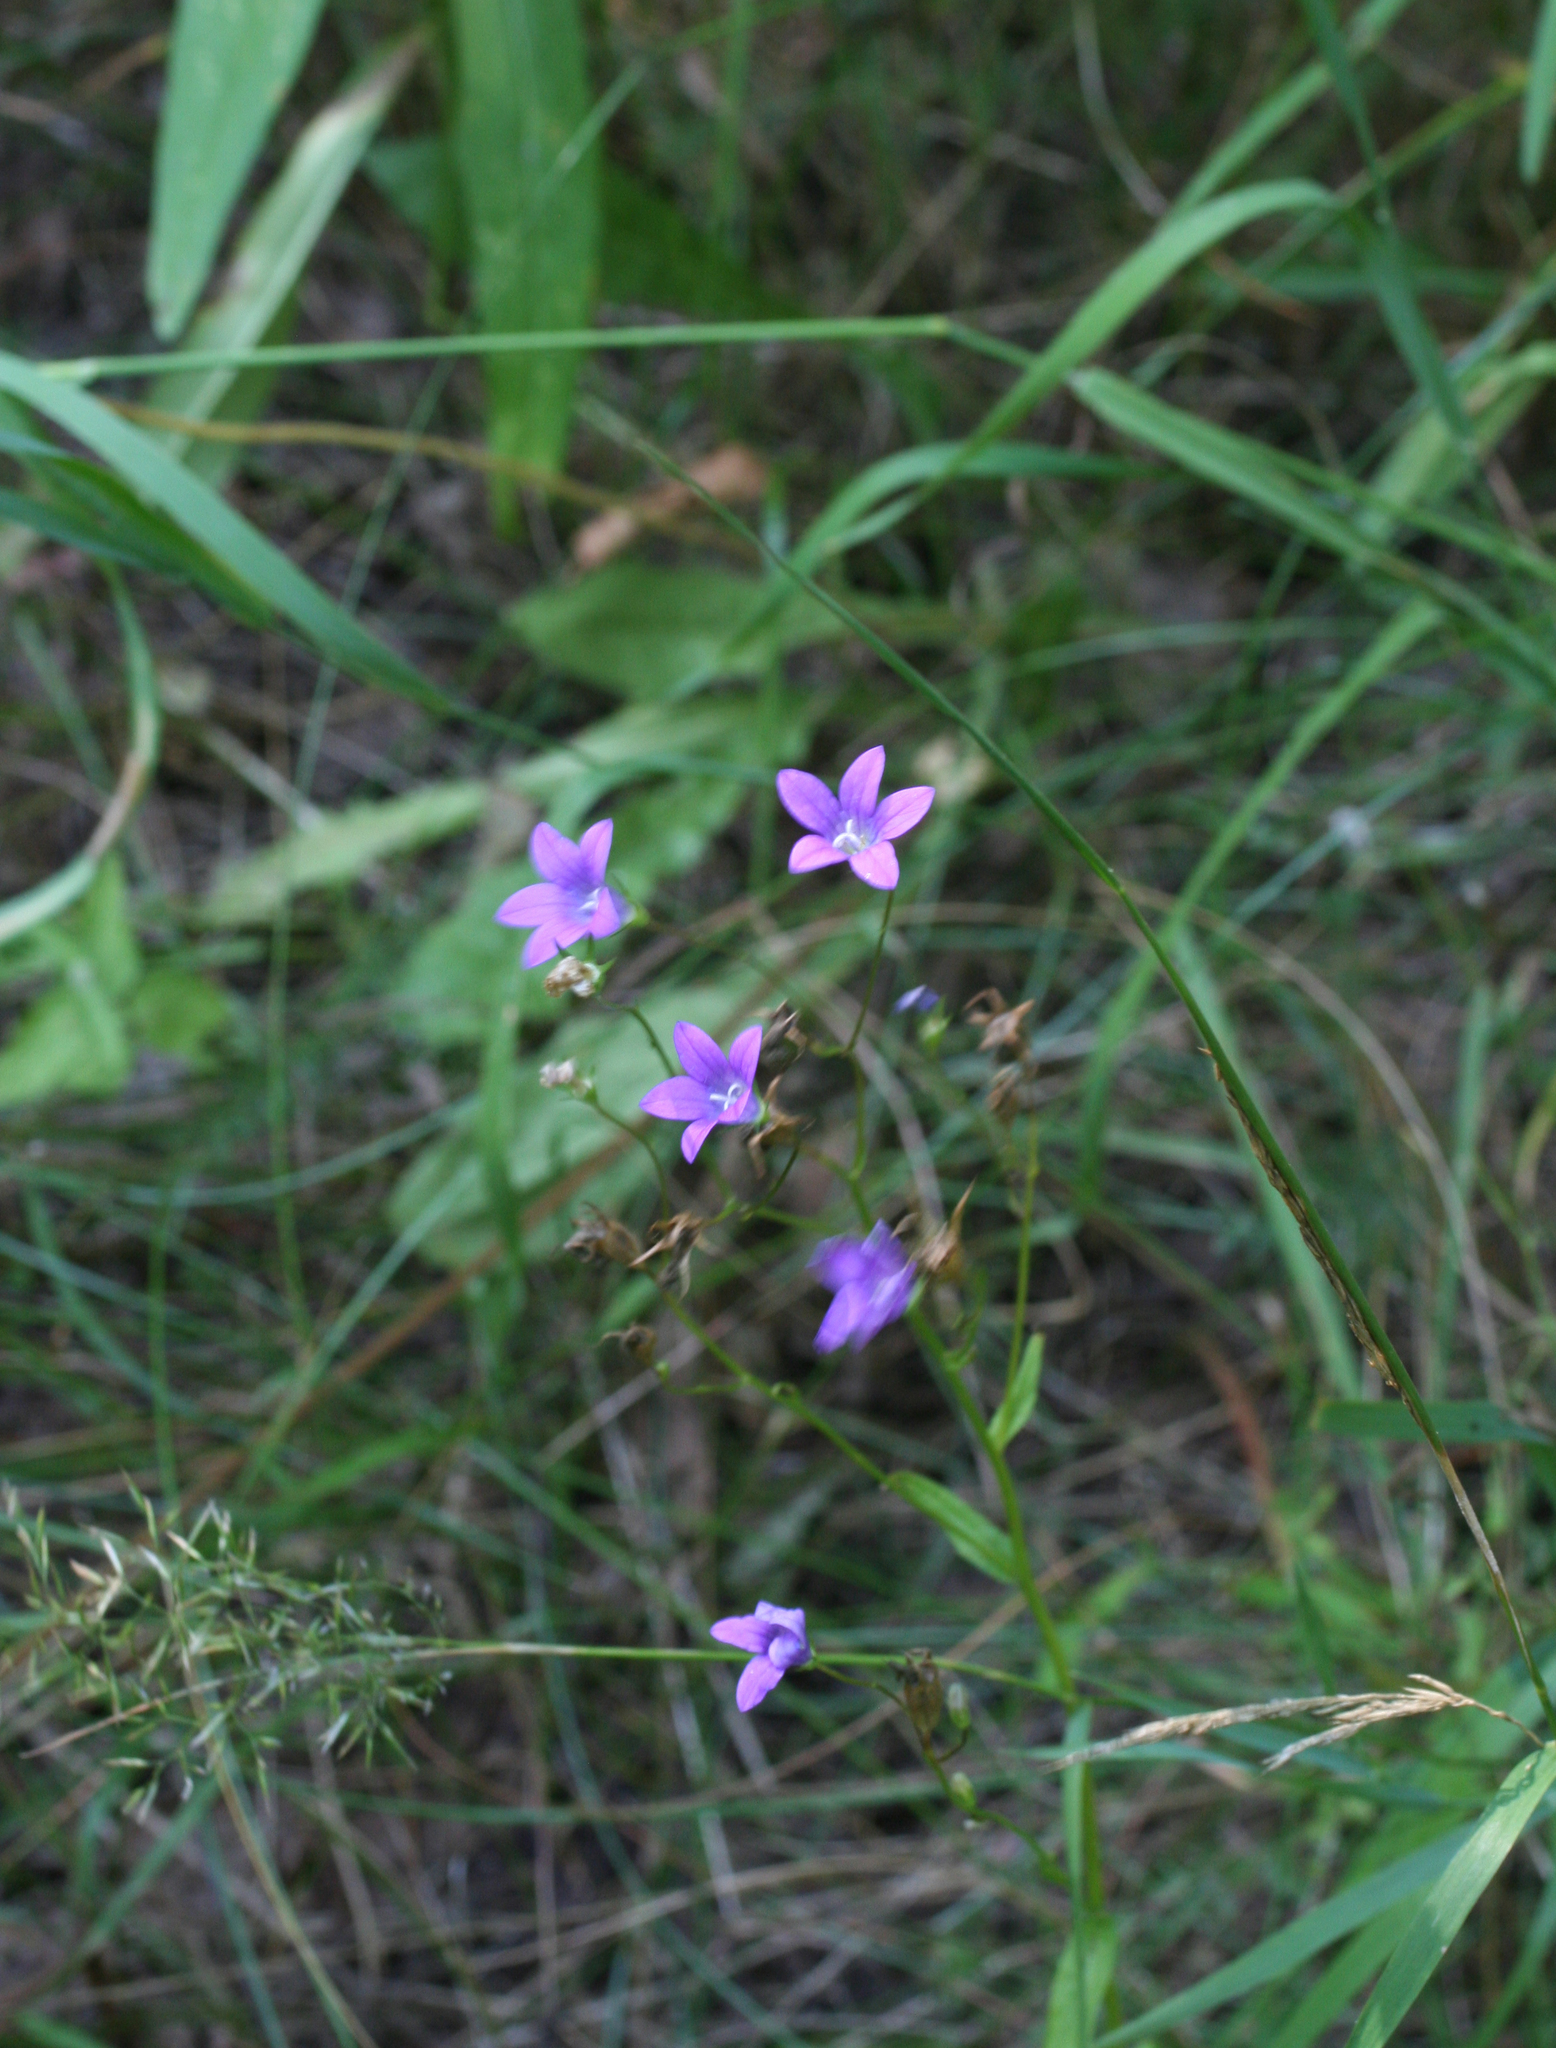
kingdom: Plantae
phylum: Tracheophyta
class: Magnoliopsida
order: Asterales
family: Campanulaceae
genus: Campanula
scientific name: Campanula patula
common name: Spreading bellflower
